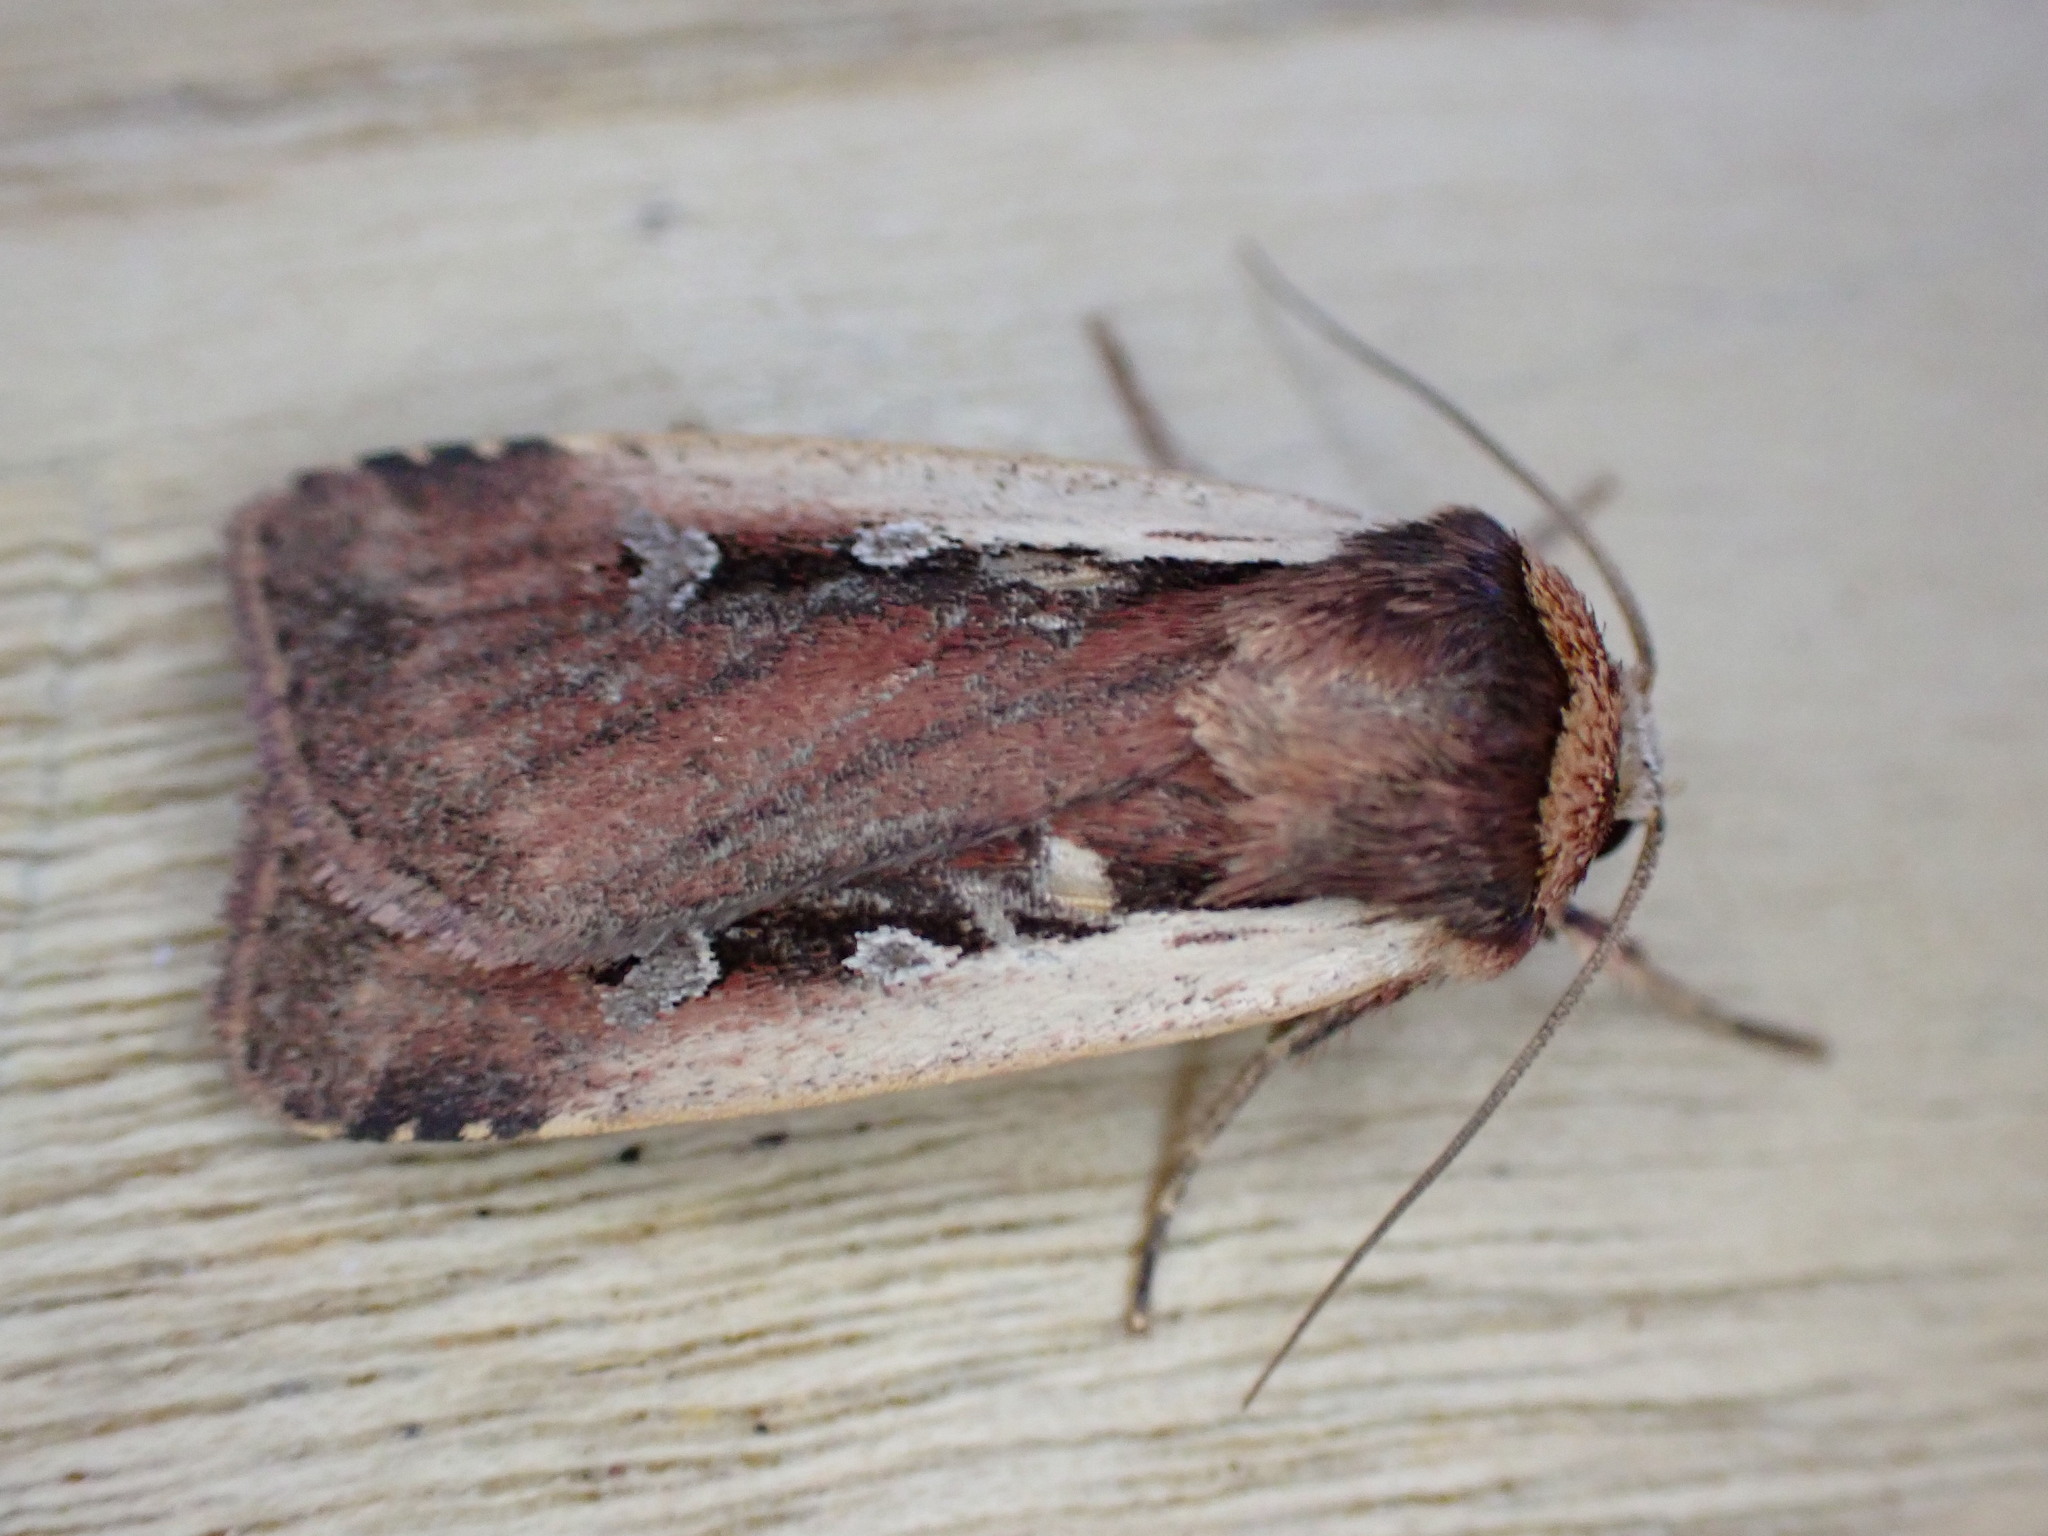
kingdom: Animalia
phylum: Arthropoda
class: Insecta
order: Lepidoptera
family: Noctuidae
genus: Ochropleura
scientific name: Ochropleura plecta
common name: Flame shoulder
